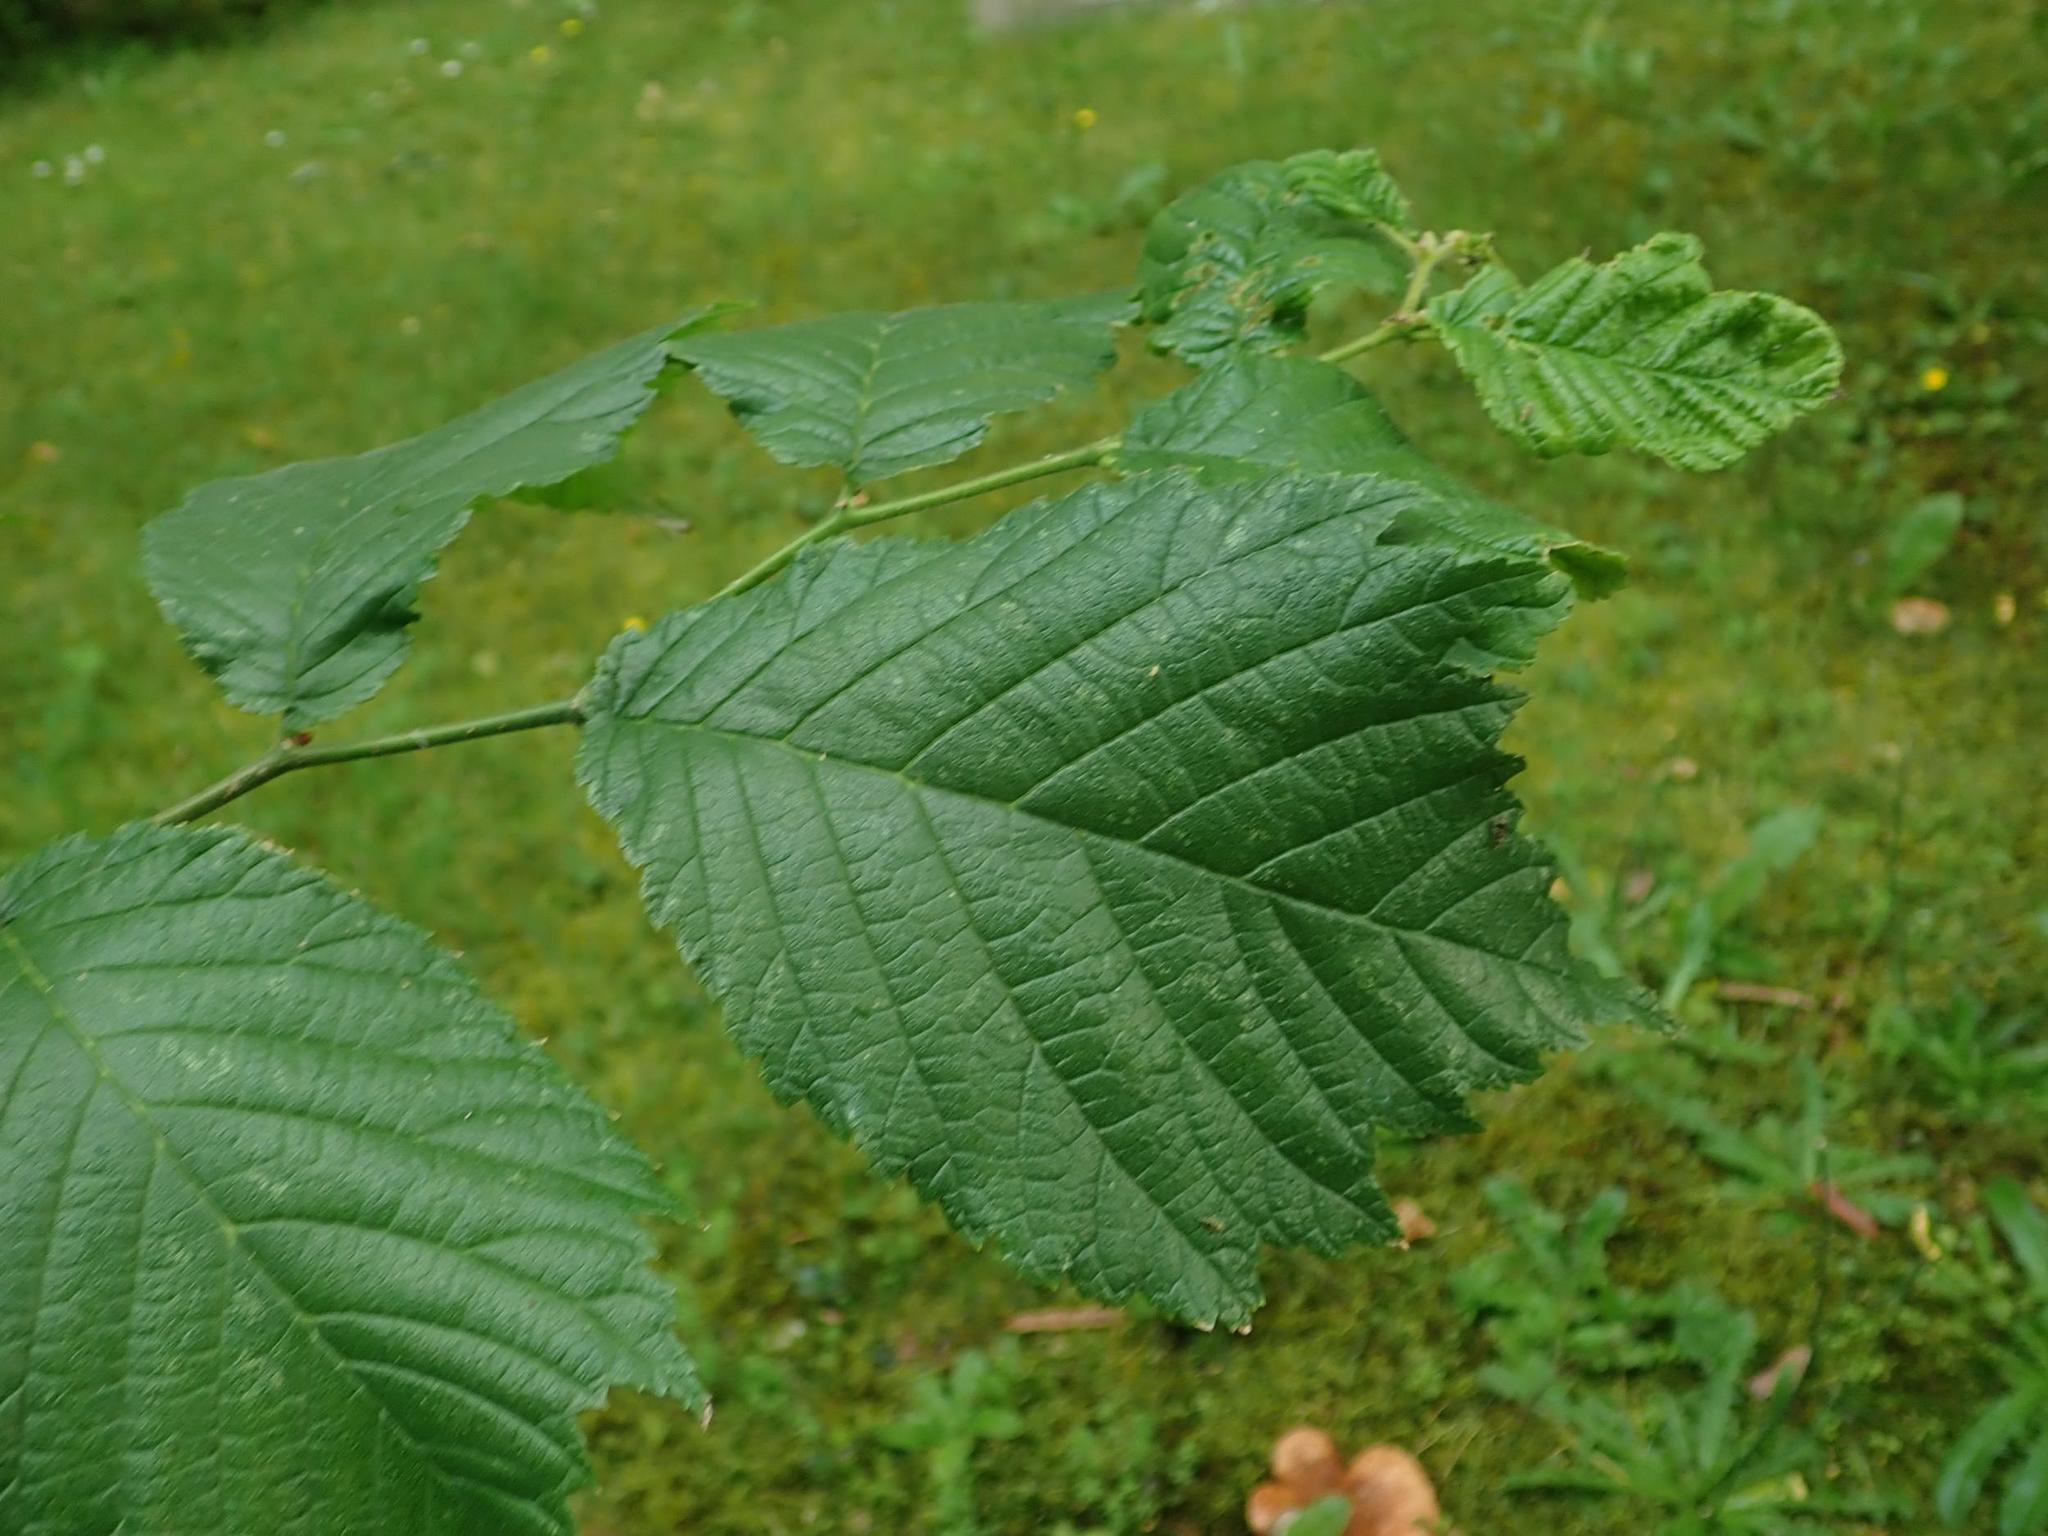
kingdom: Plantae
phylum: Tracheophyta
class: Magnoliopsida
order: Rosales
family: Ulmaceae
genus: Ulmus
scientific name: Ulmus glabra
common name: Wych elm
